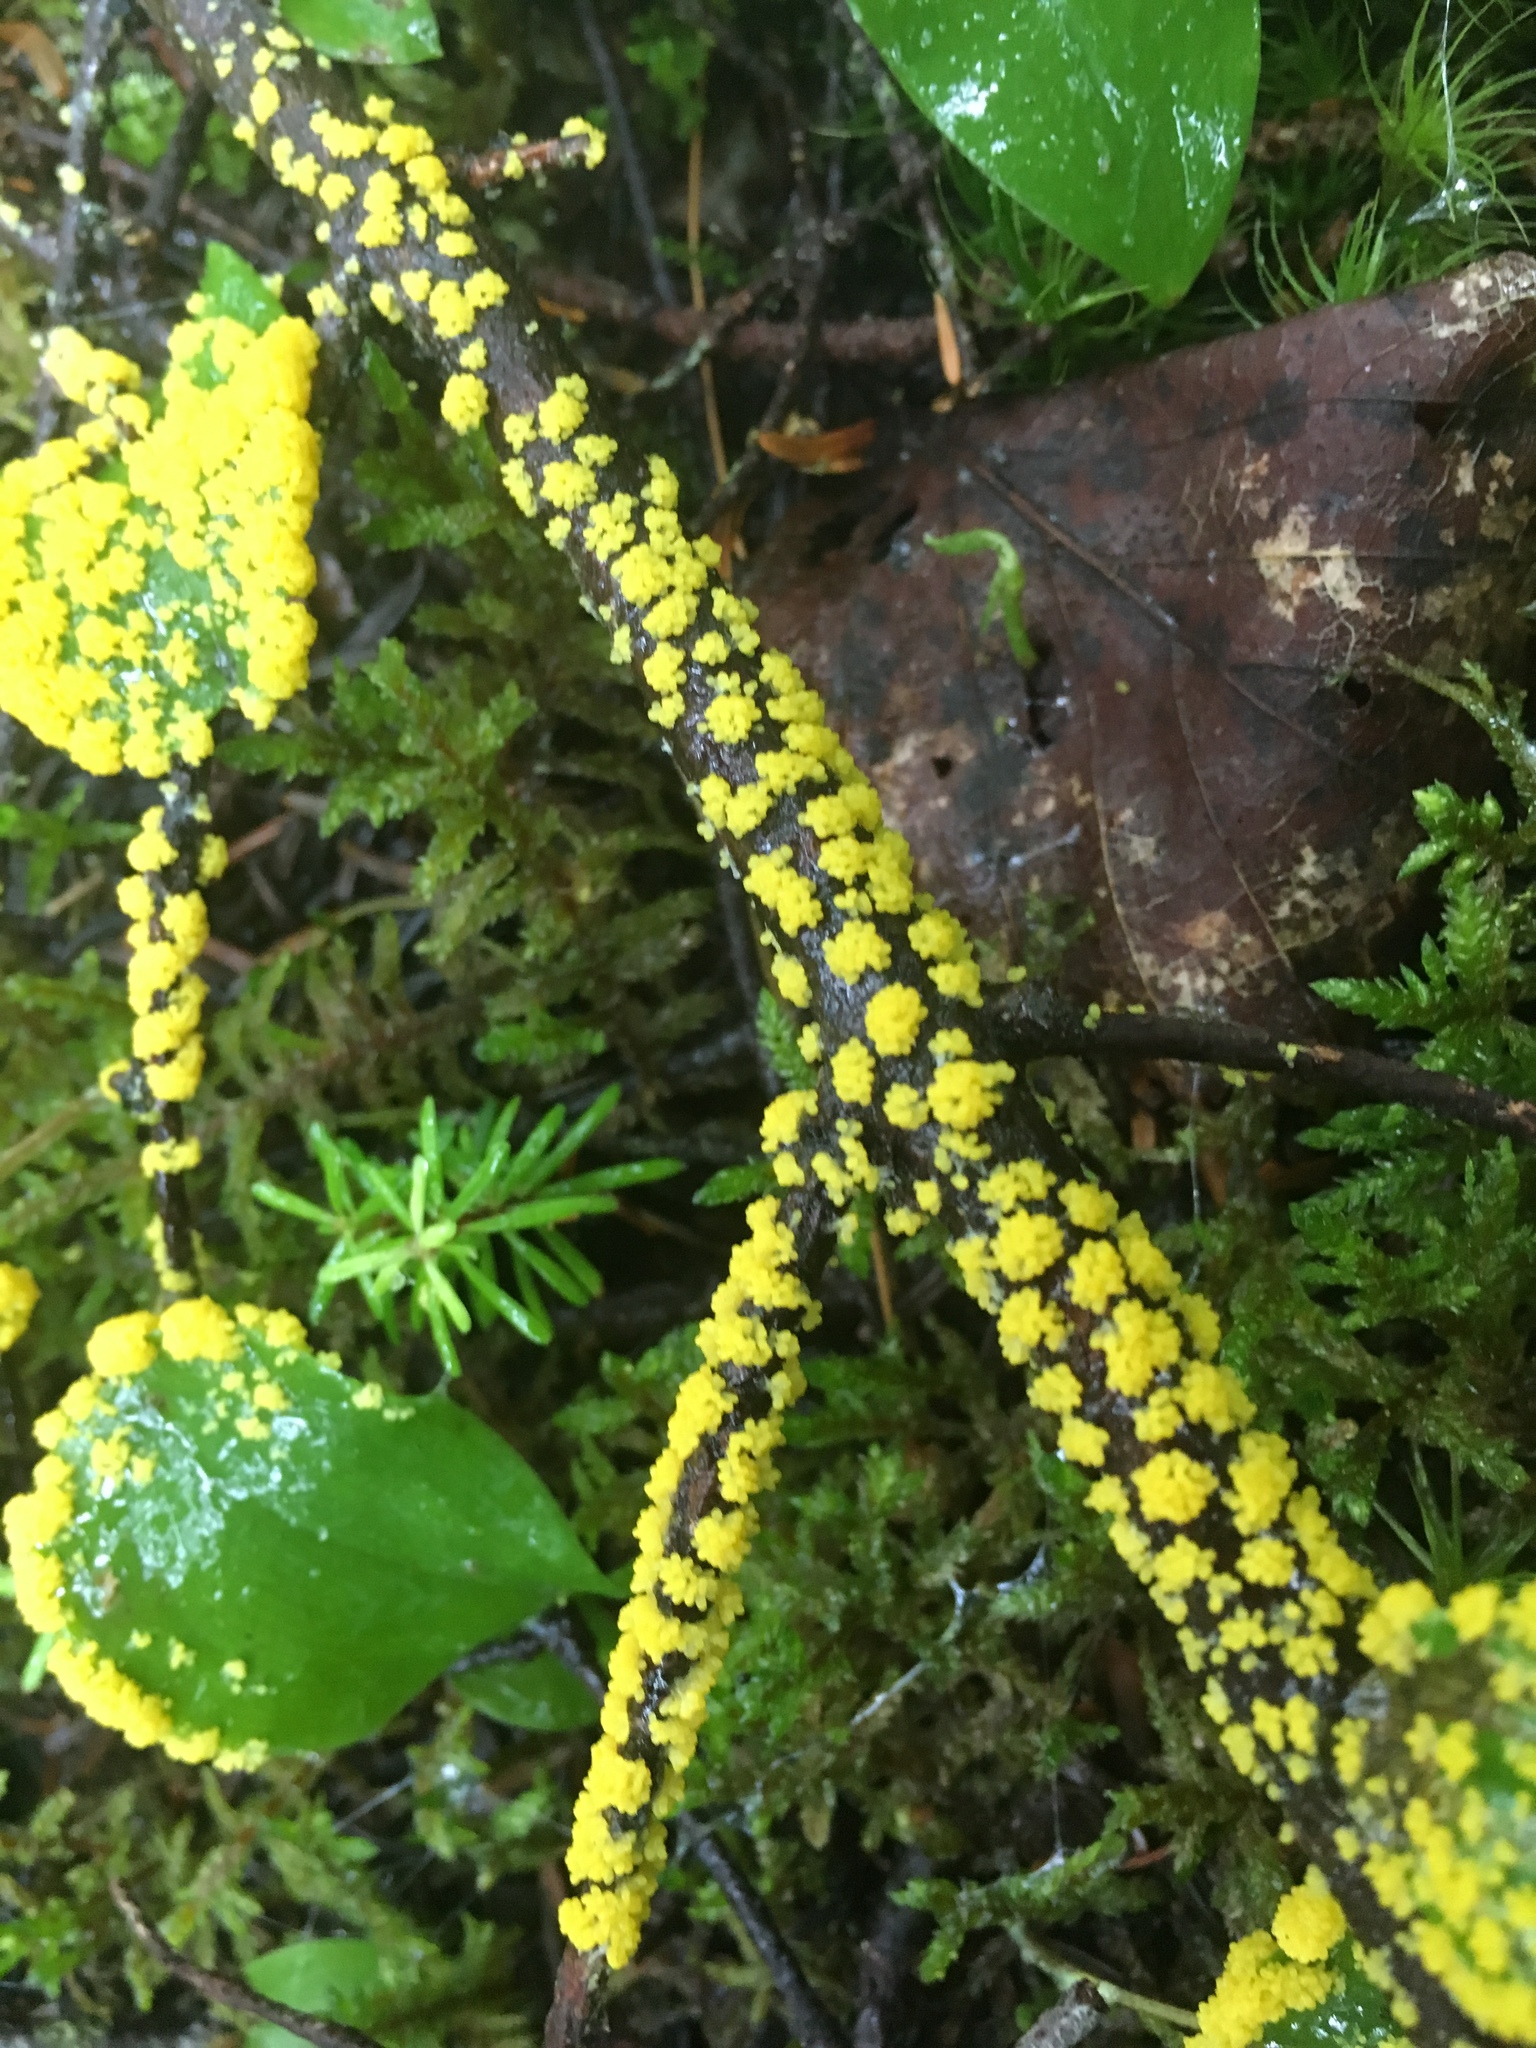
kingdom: Protozoa
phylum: Mycetozoa
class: Myxomycetes
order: Physarales
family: Physaraceae
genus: Fuligo
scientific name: Fuligo septica
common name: Dog vomit slime mold
